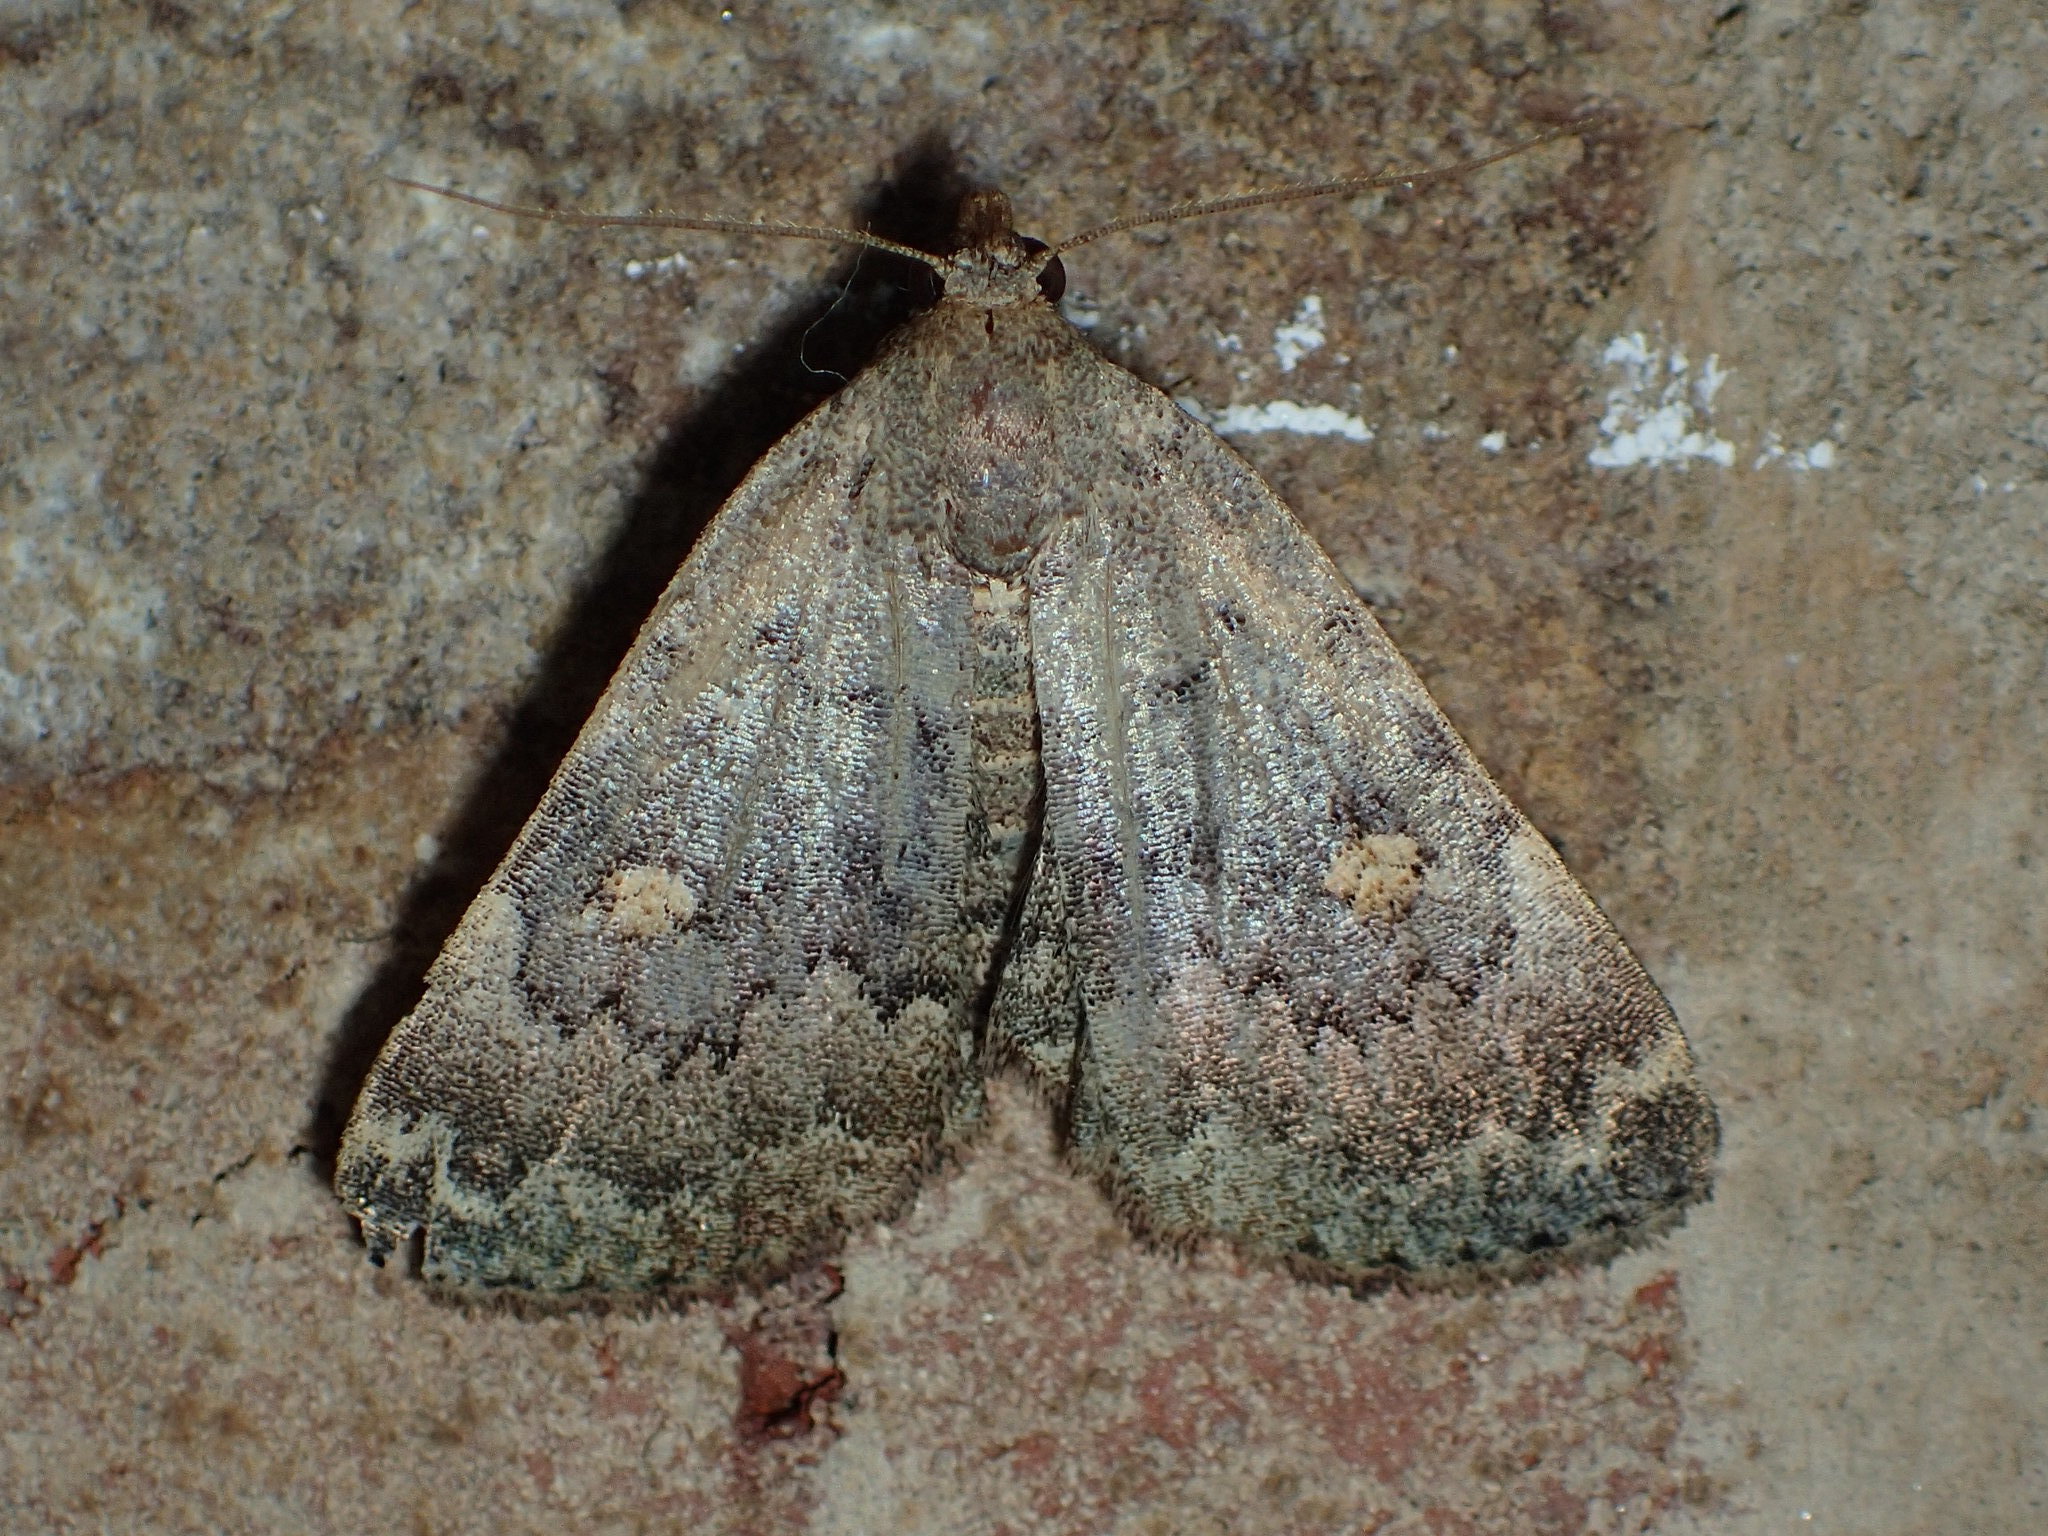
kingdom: Animalia
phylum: Arthropoda
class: Insecta
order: Lepidoptera
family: Erebidae
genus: Idia
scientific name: Idia aemula
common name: Common idia moth
